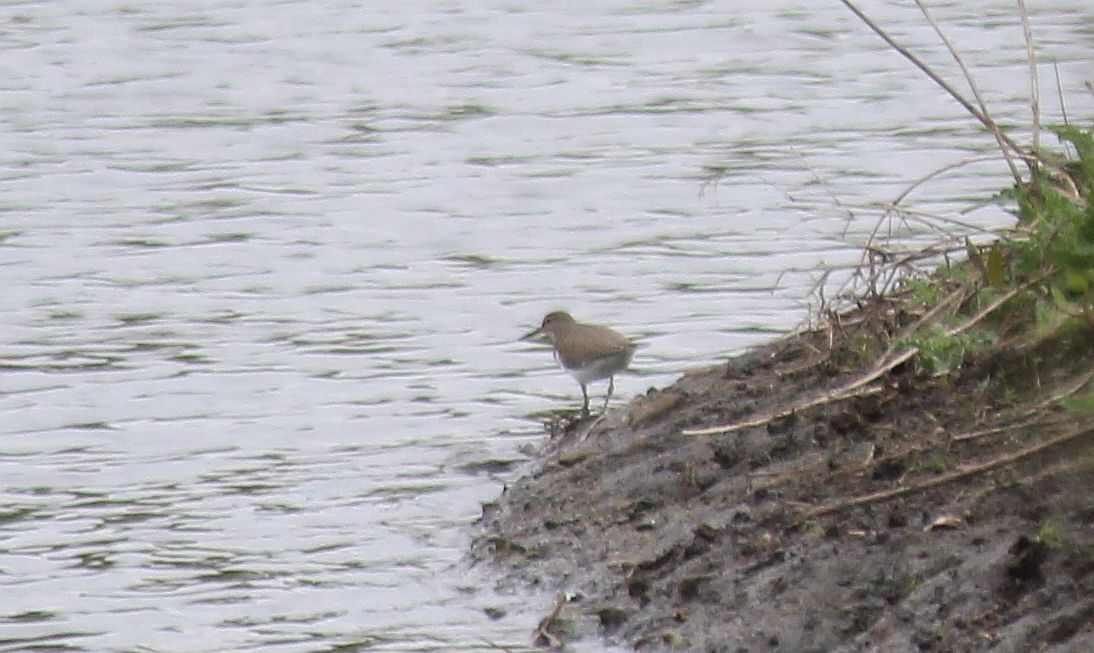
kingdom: Animalia
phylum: Chordata
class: Aves
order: Charadriiformes
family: Scolopacidae
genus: Actitis
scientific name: Actitis hypoleucos
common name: Common sandpiper
